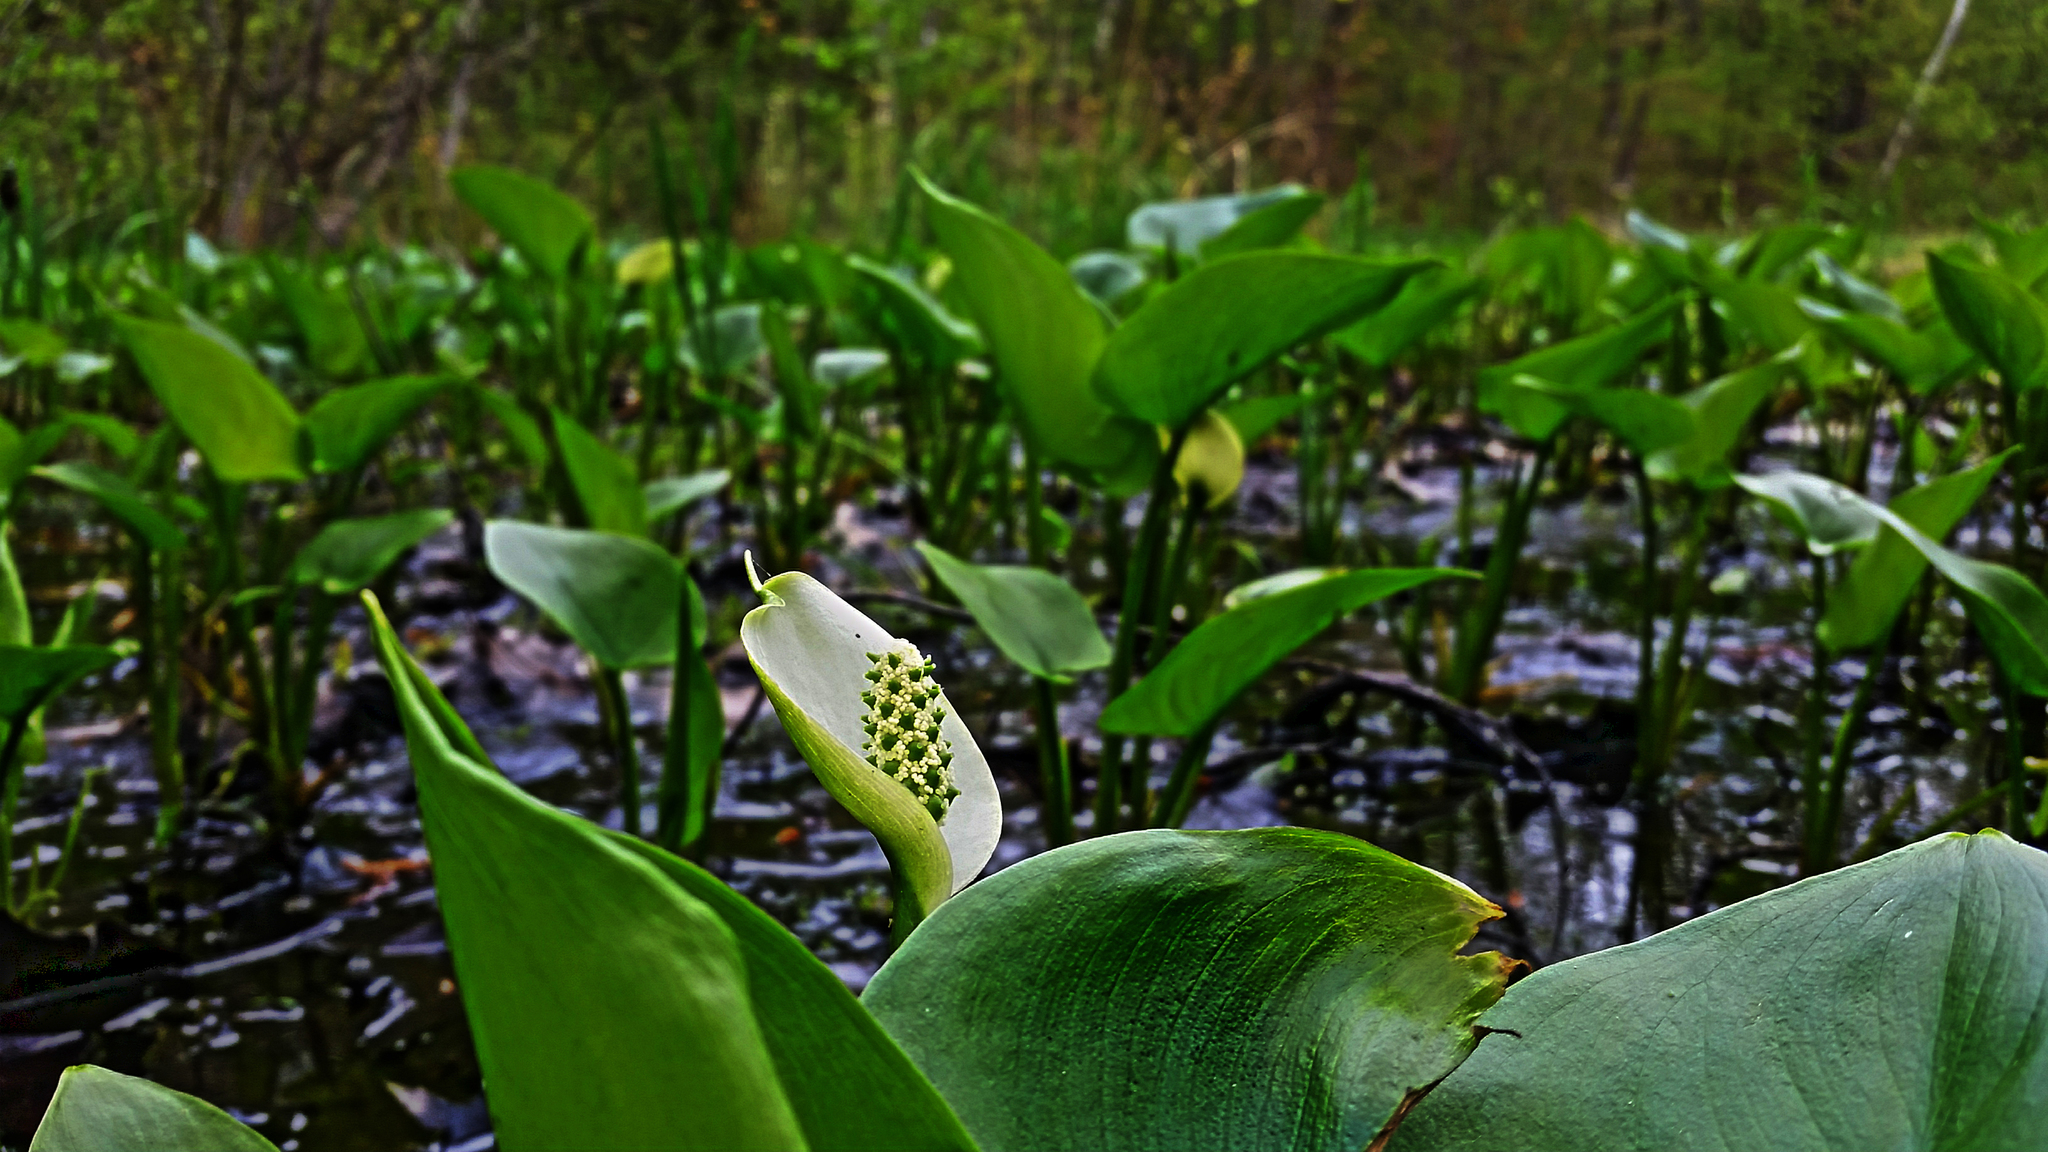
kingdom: Plantae
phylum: Tracheophyta
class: Liliopsida
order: Alismatales
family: Araceae
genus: Calla
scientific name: Calla palustris
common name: Bog arum
